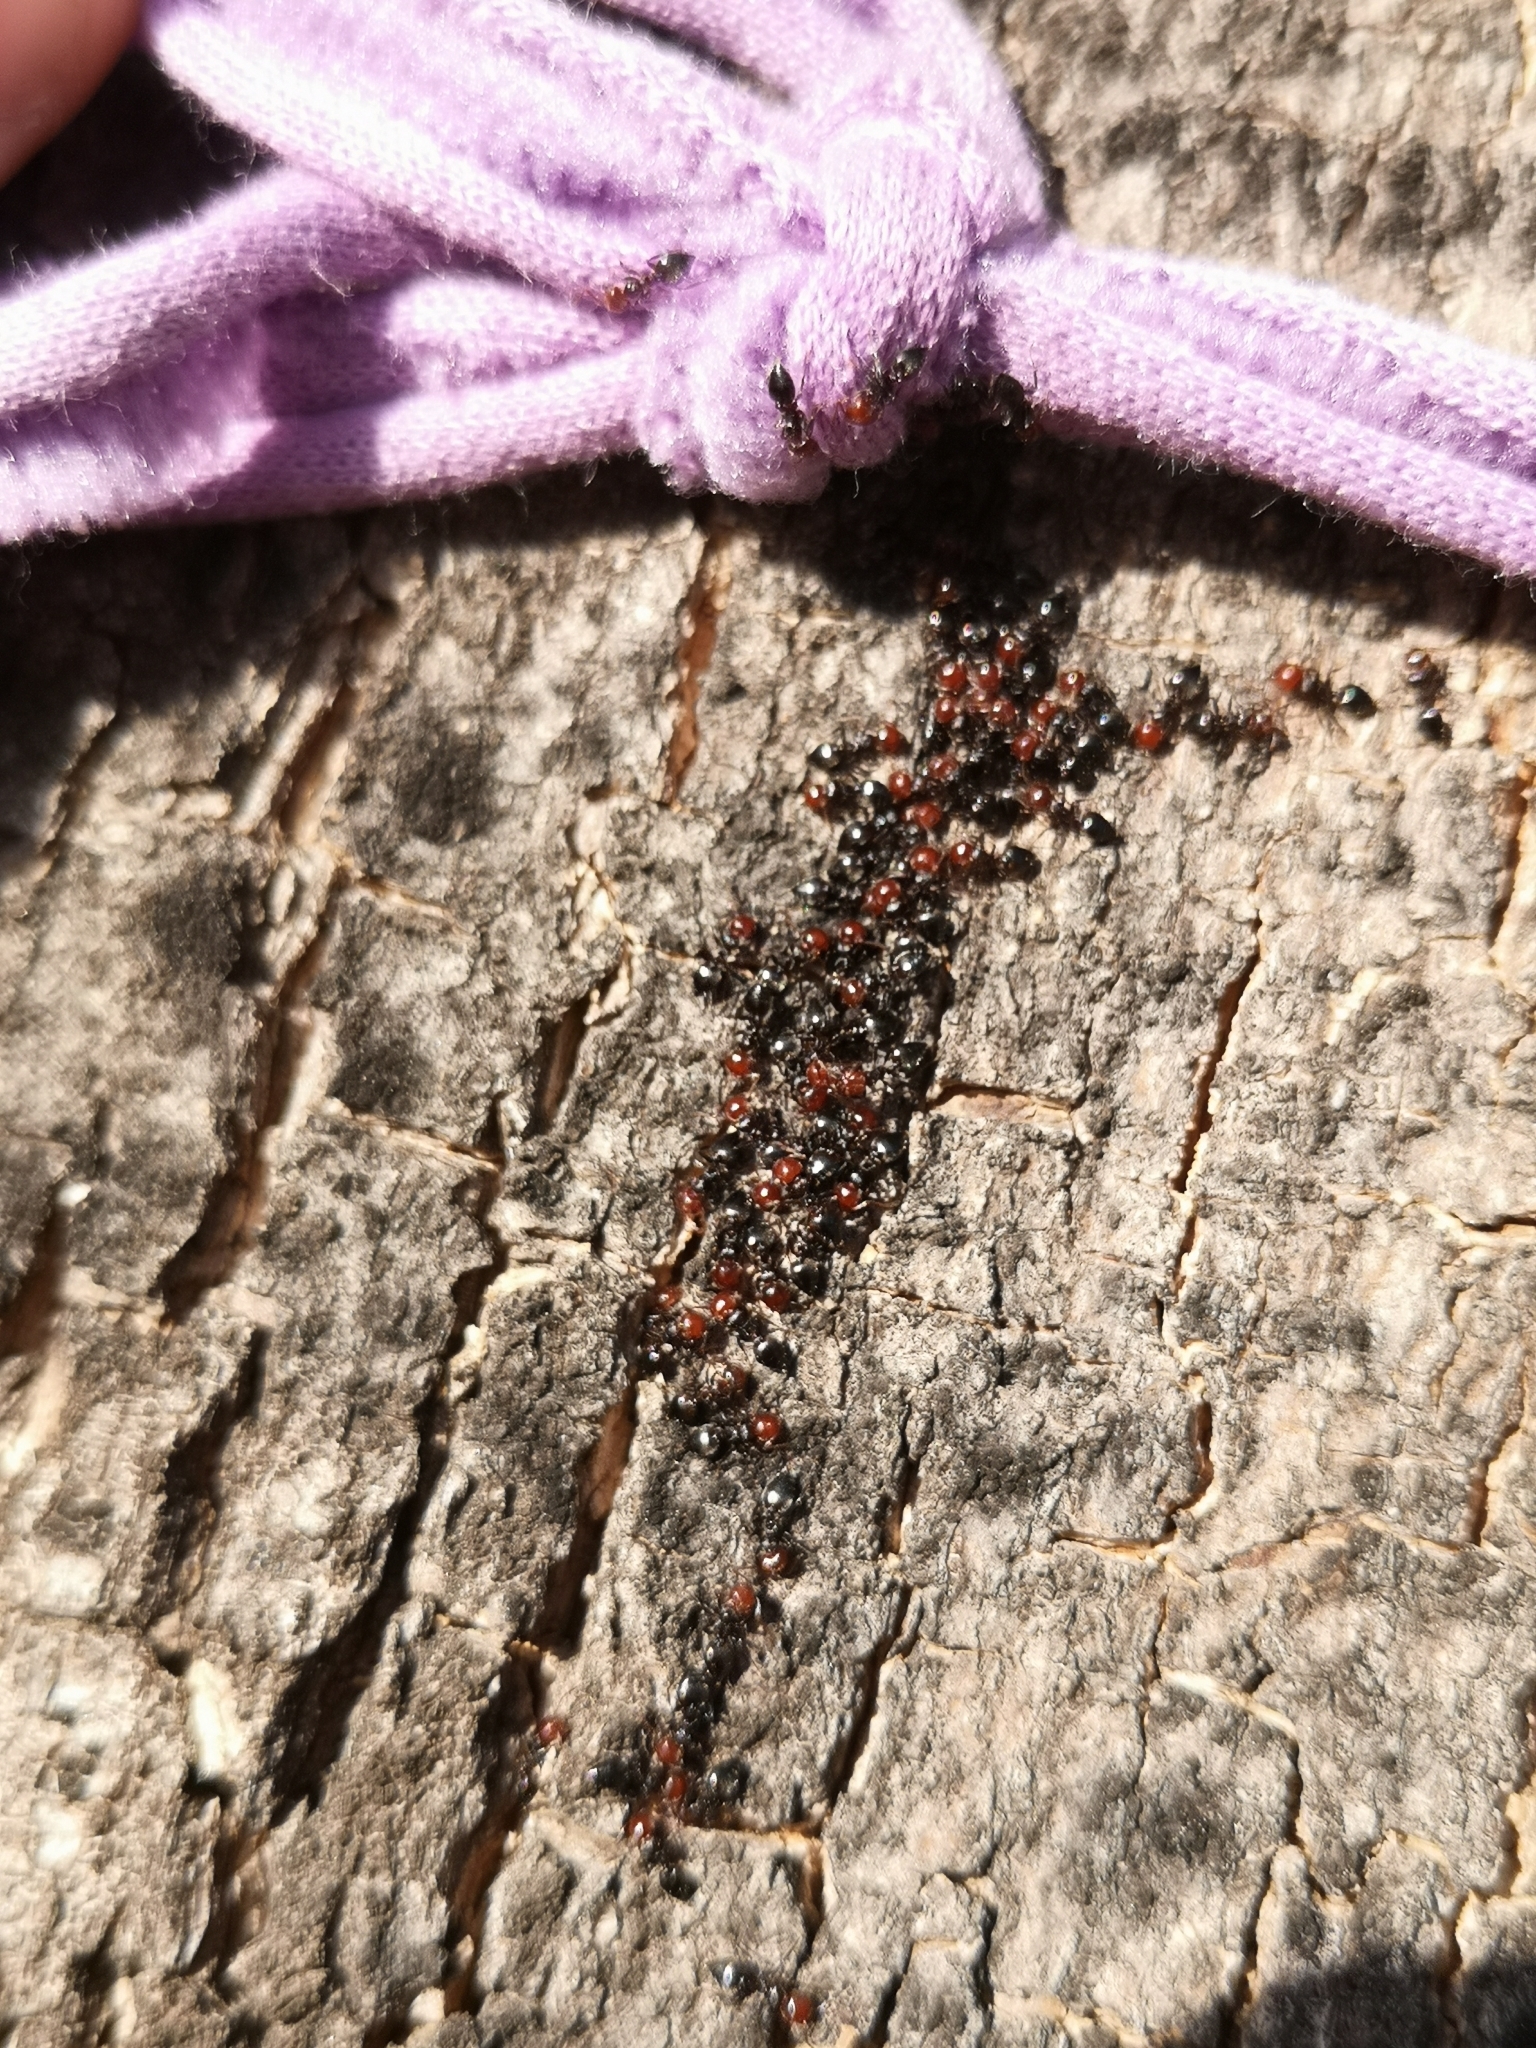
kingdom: Animalia
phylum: Arthropoda
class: Insecta
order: Hymenoptera
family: Formicidae
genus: Crematogaster
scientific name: Crematogaster scutellaris
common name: Fourmi du liège
